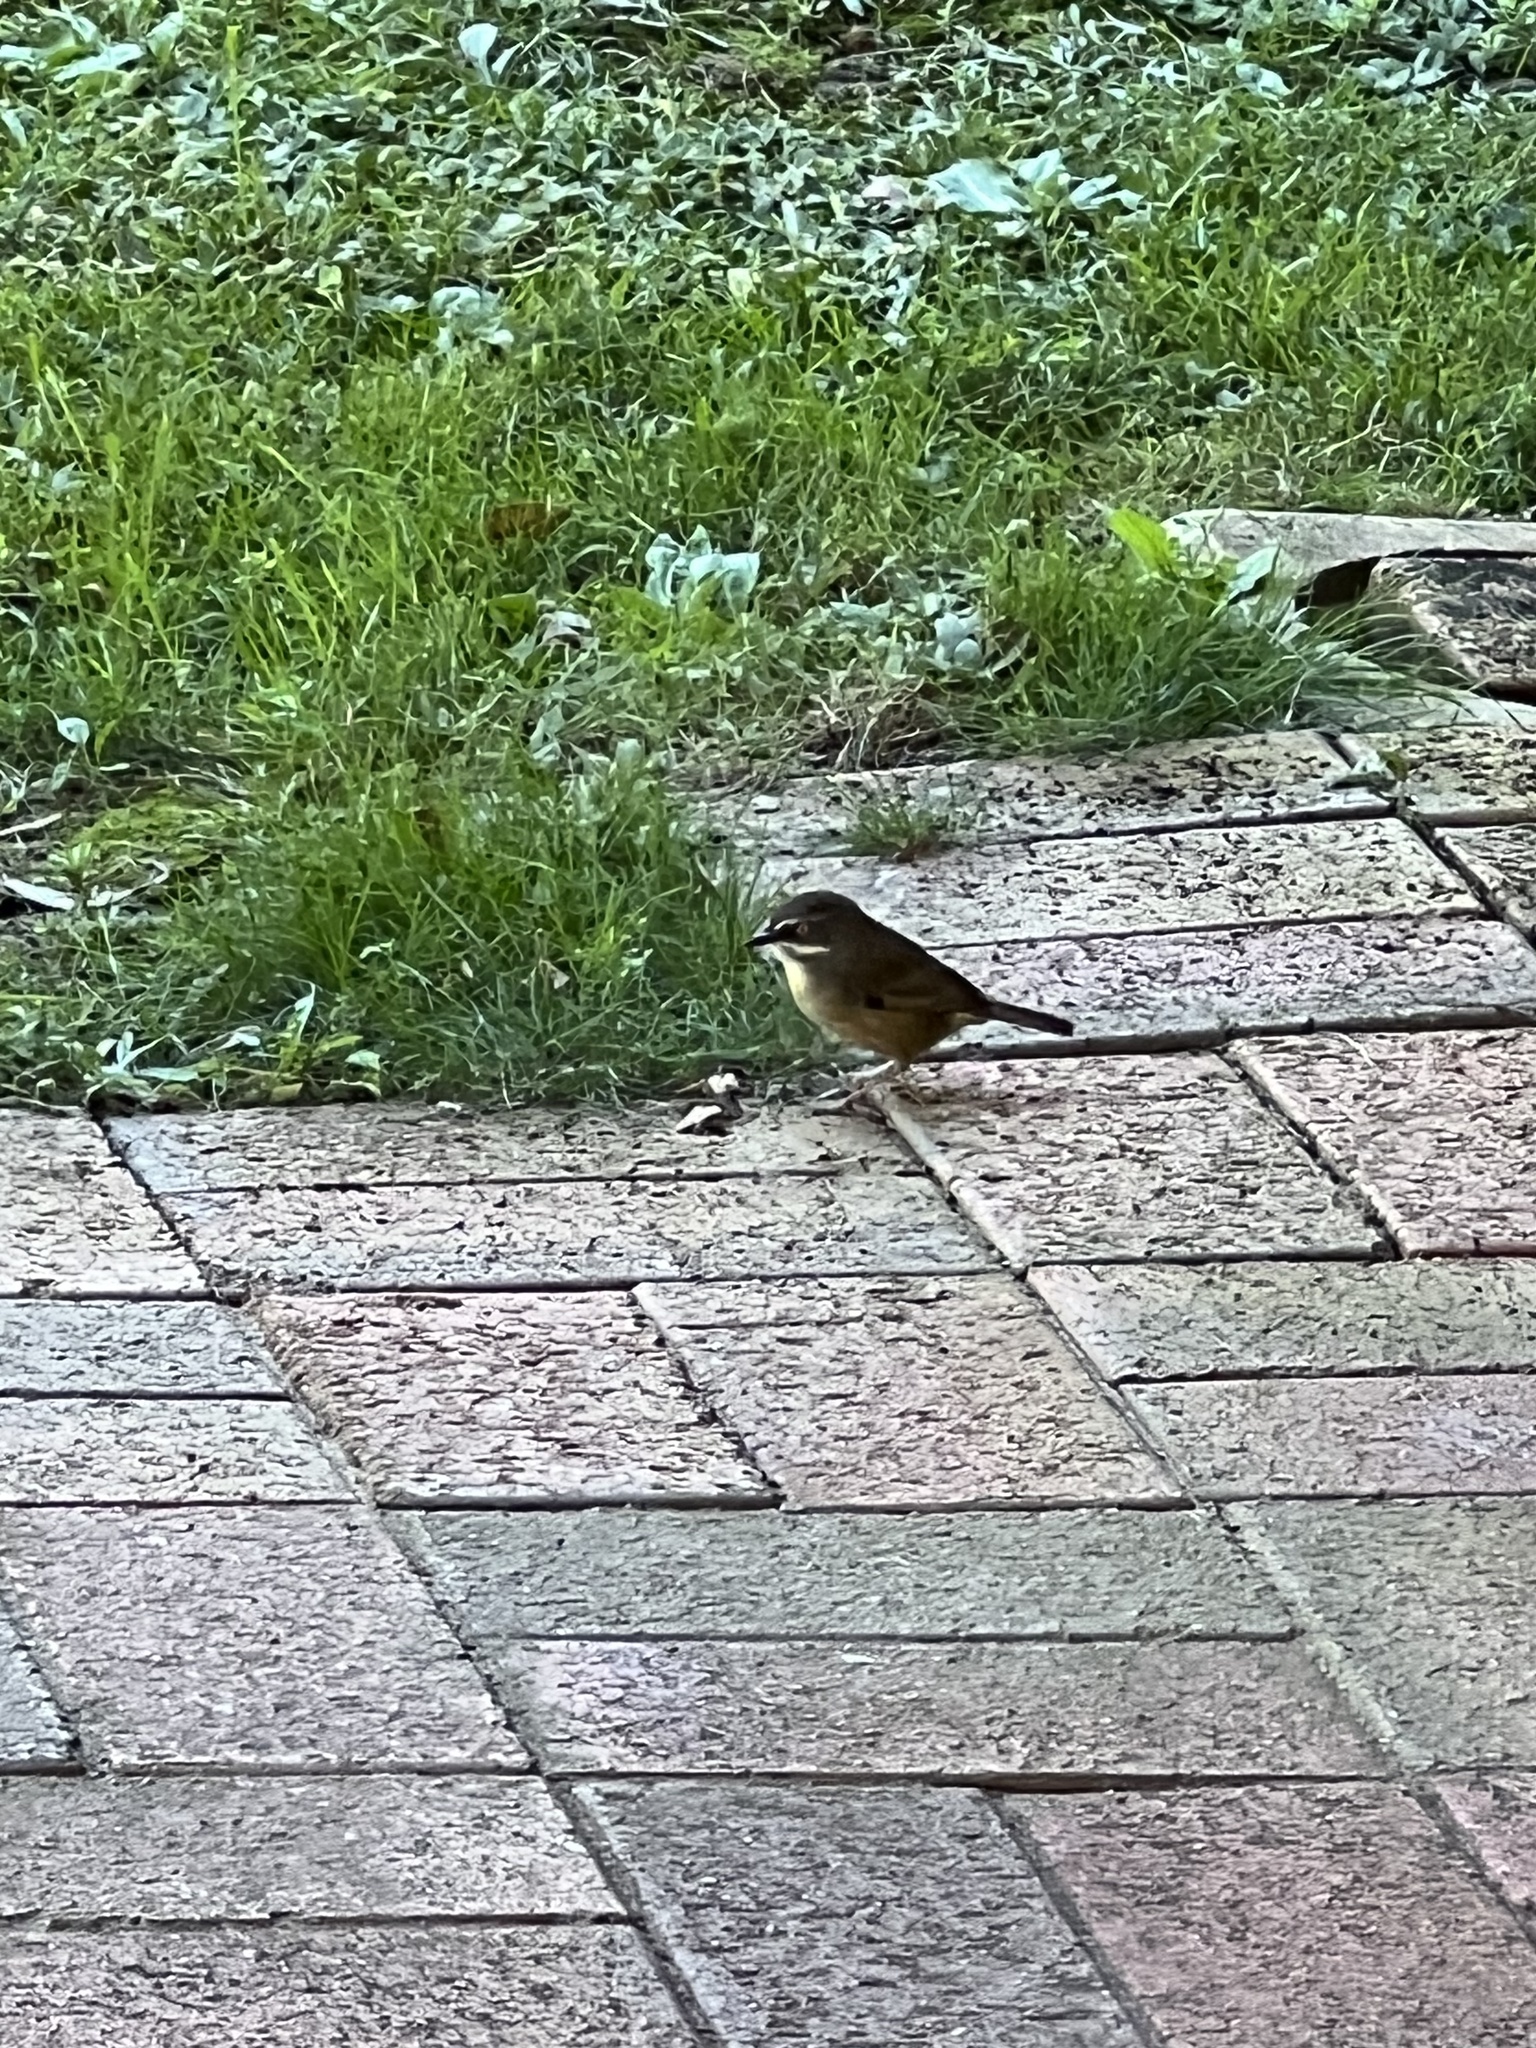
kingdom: Animalia
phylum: Chordata
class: Aves
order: Passeriformes
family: Acanthizidae
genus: Sericornis
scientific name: Sericornis frontalis
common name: White-browed scrubwren
